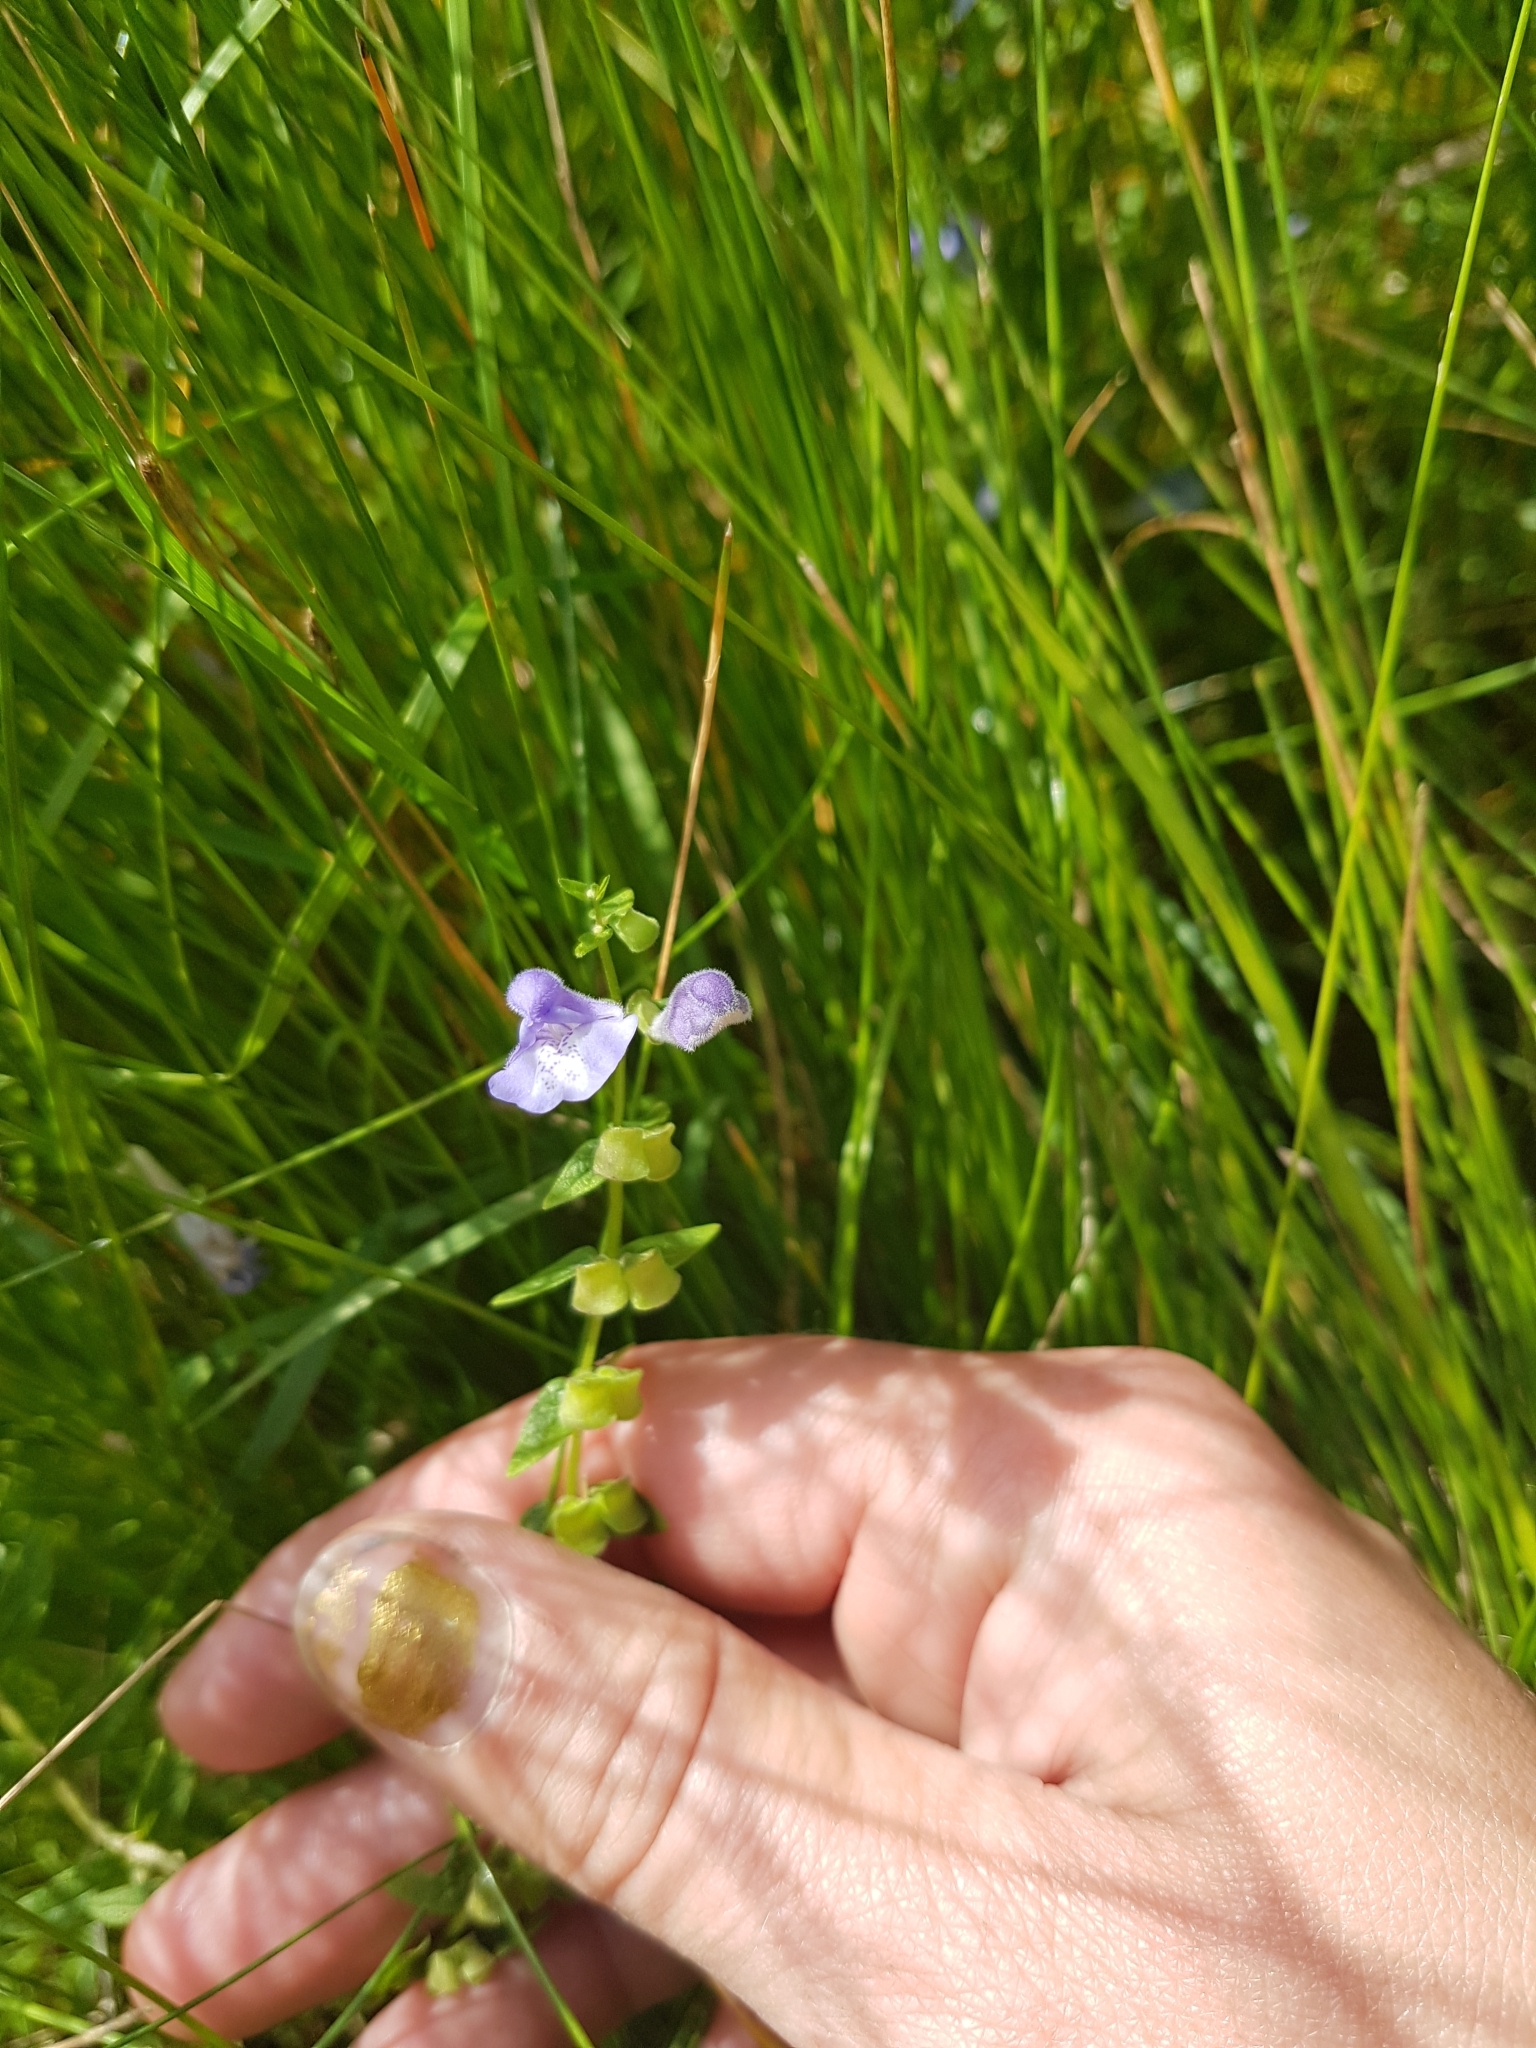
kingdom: Plantae
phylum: Tracheophyta
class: Magnoliopsida
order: Lamiales
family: Lamiaceae
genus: Scutellaria
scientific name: Scutellaria galericulata
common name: Skullcap
